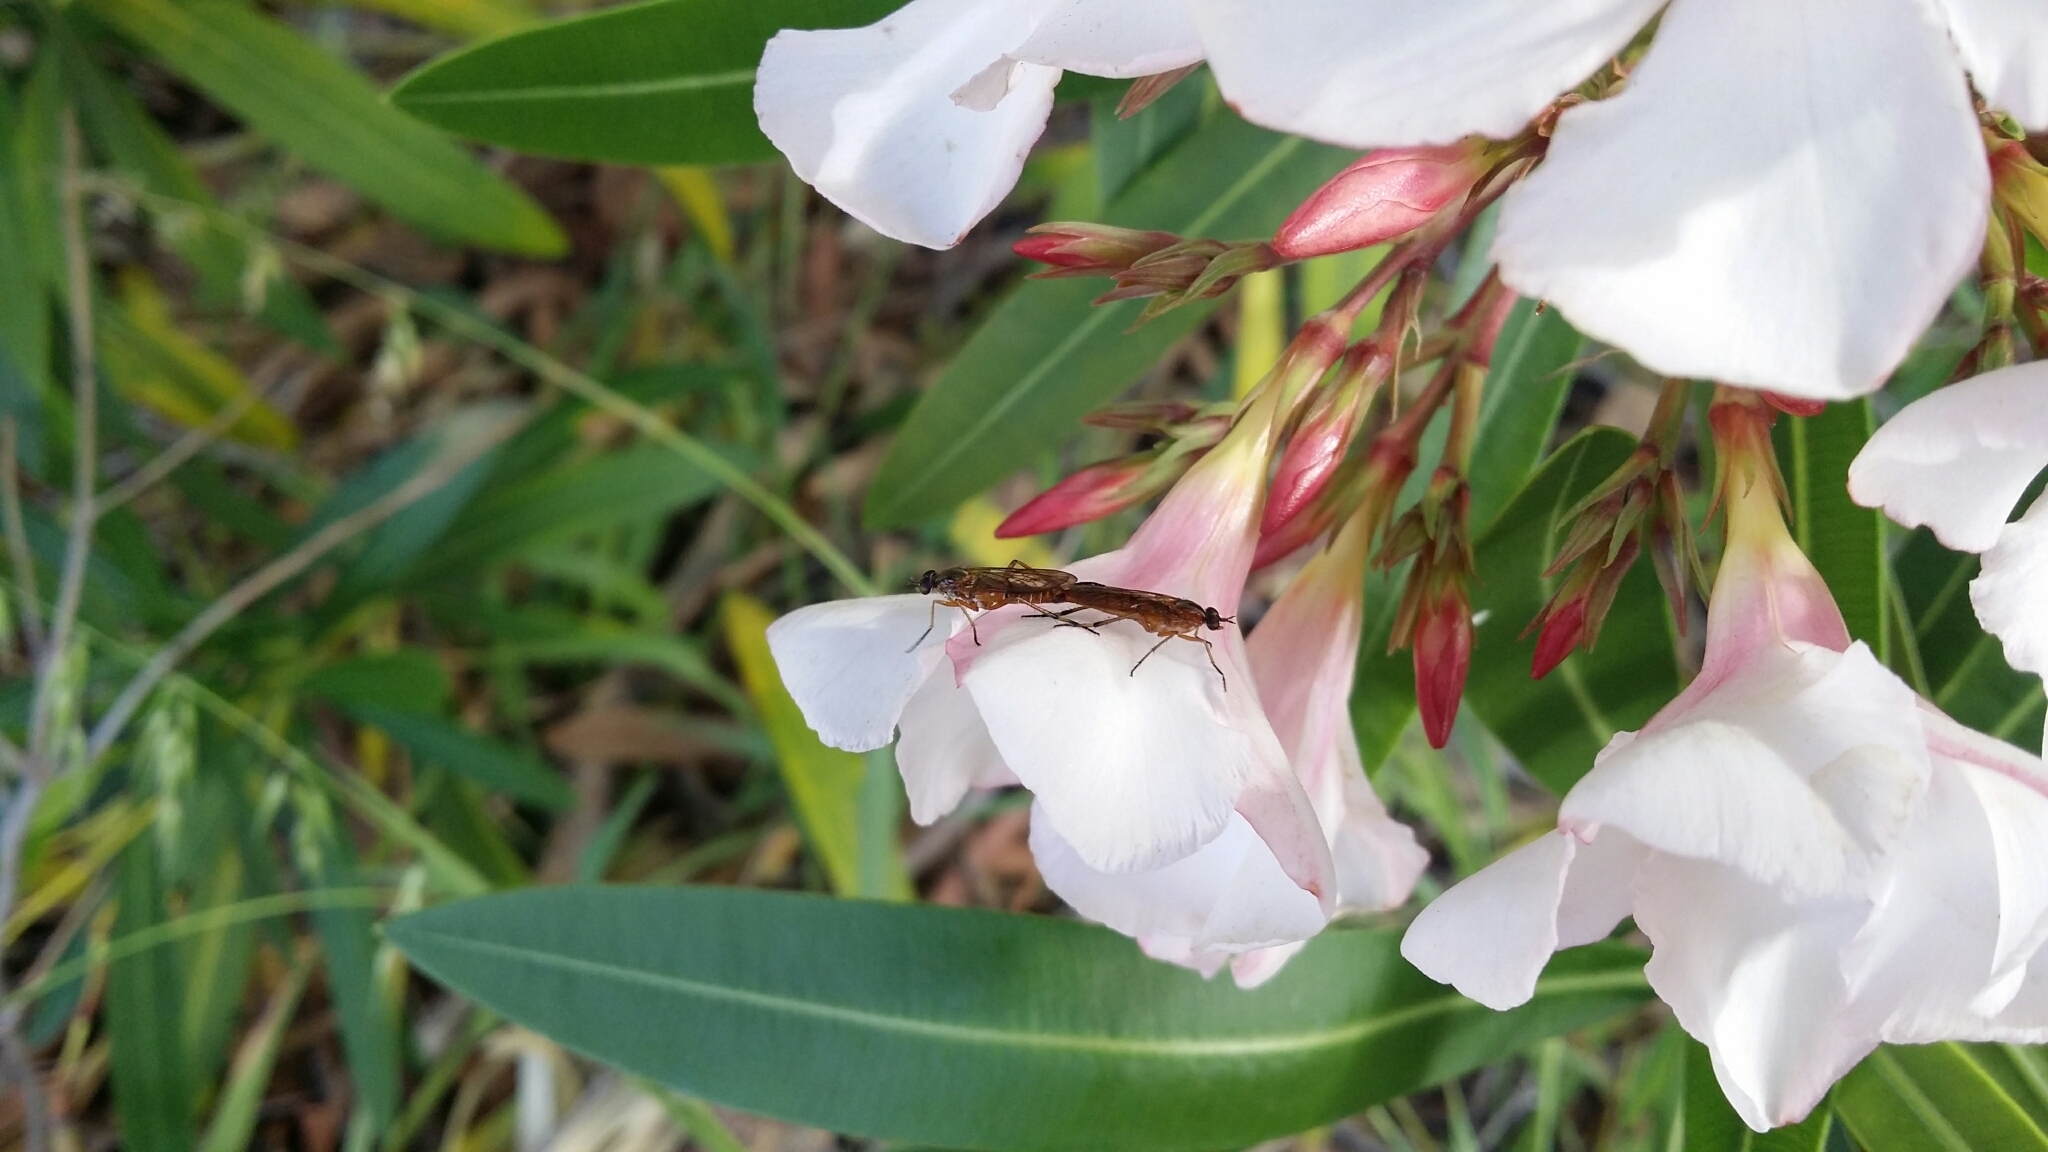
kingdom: Animalia
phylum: Arthropoda
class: Insecta
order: Diptera
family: Therevidae
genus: Ectinorhynchus
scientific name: Ectinorhynchus levis
